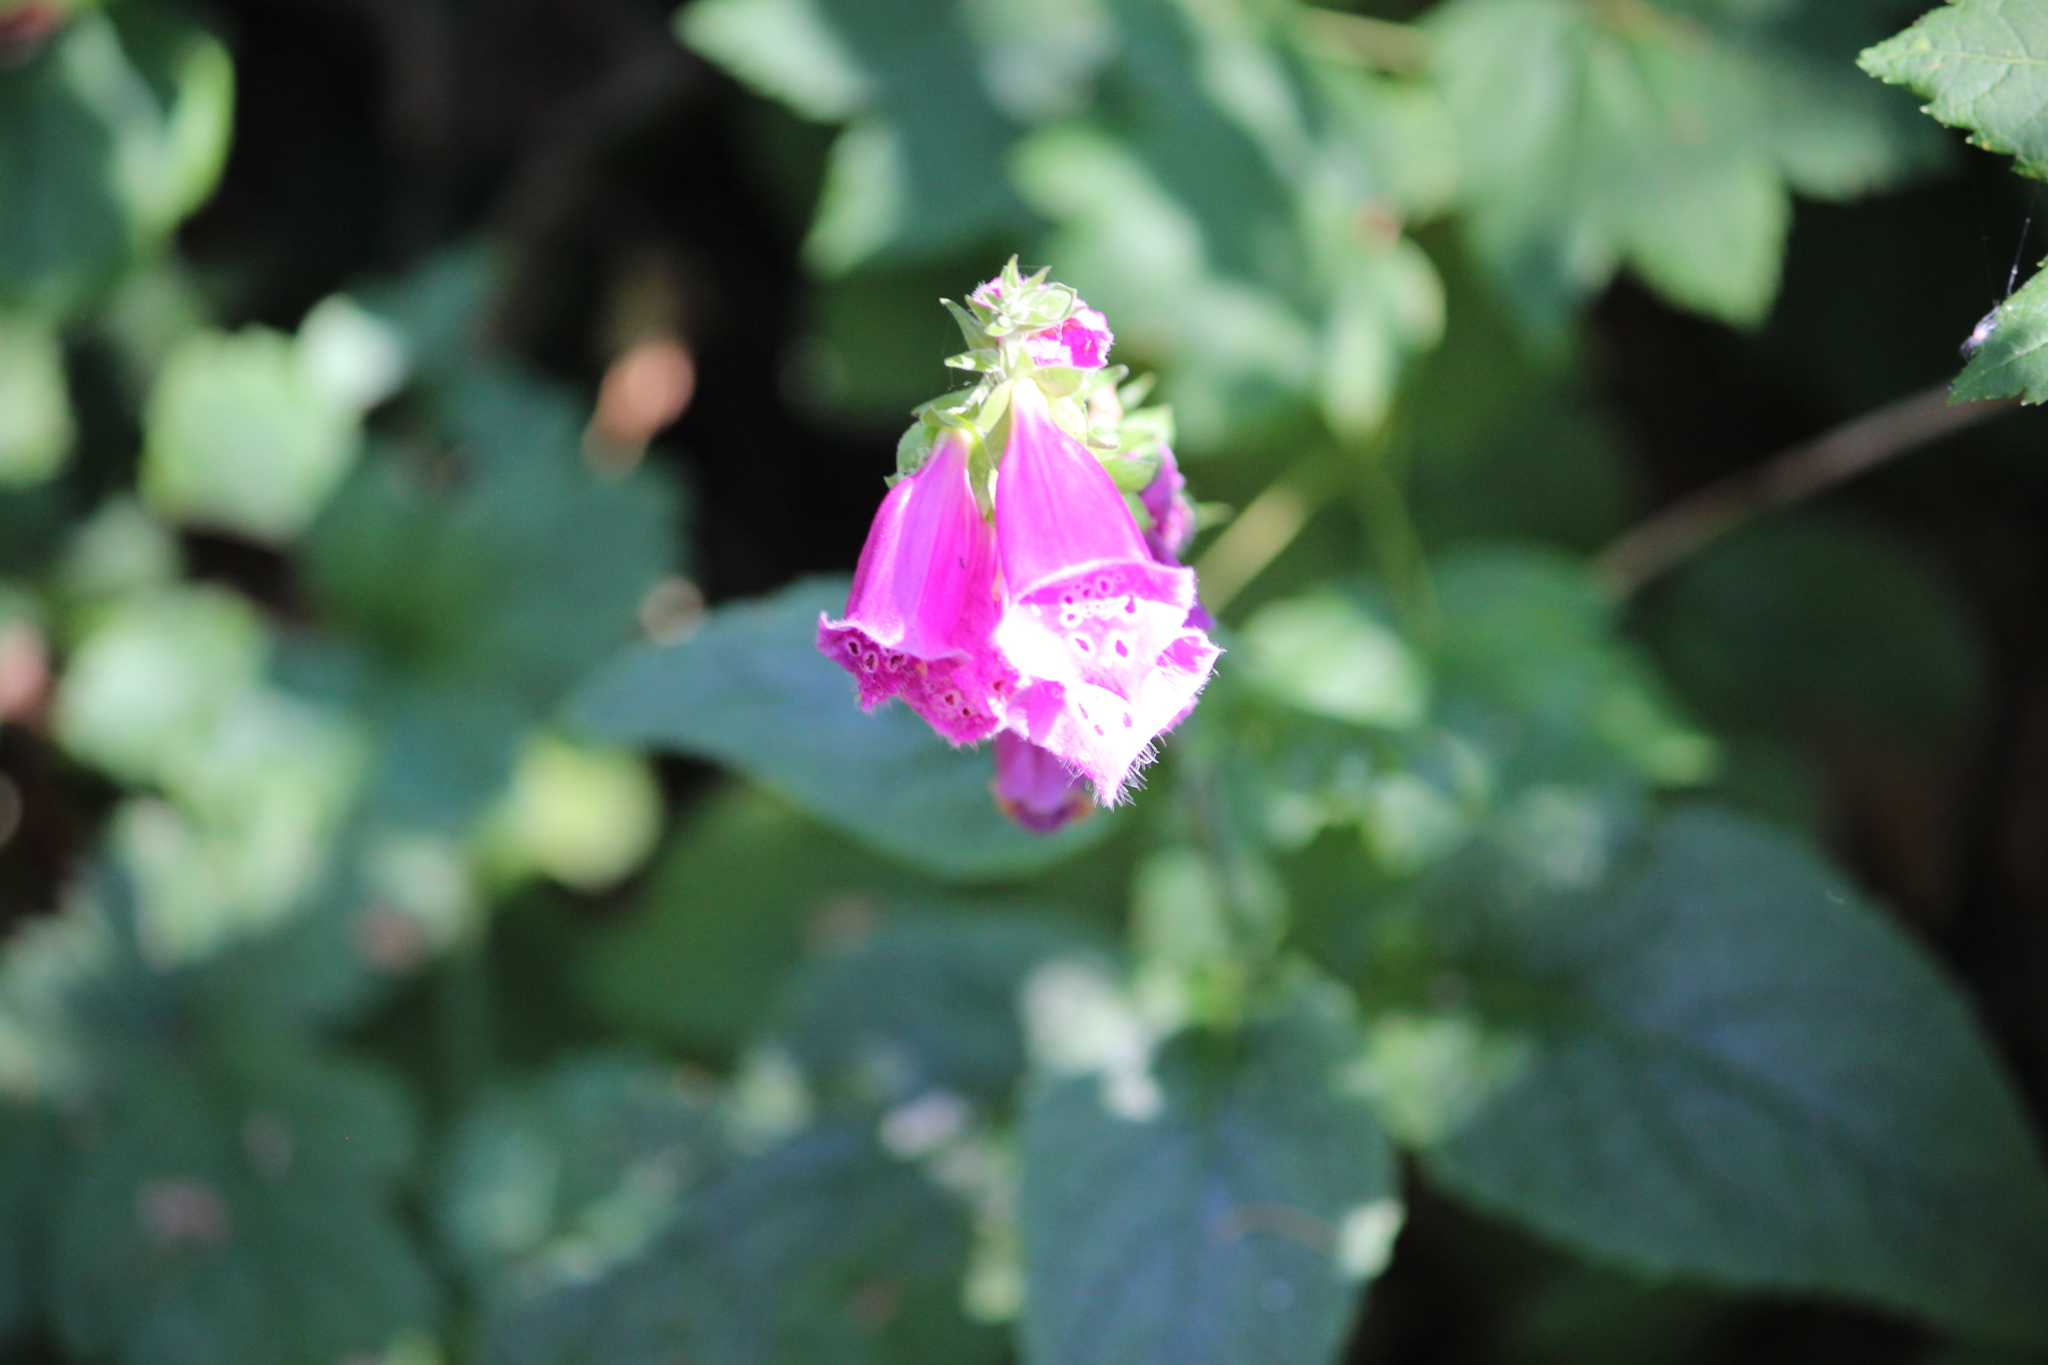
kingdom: Plantae
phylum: Tracheophyta
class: Magnoliopsida
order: Lamiales
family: Plantaginaceae
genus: Digitalis
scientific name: Digitalis purpurea
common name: Foxglove
